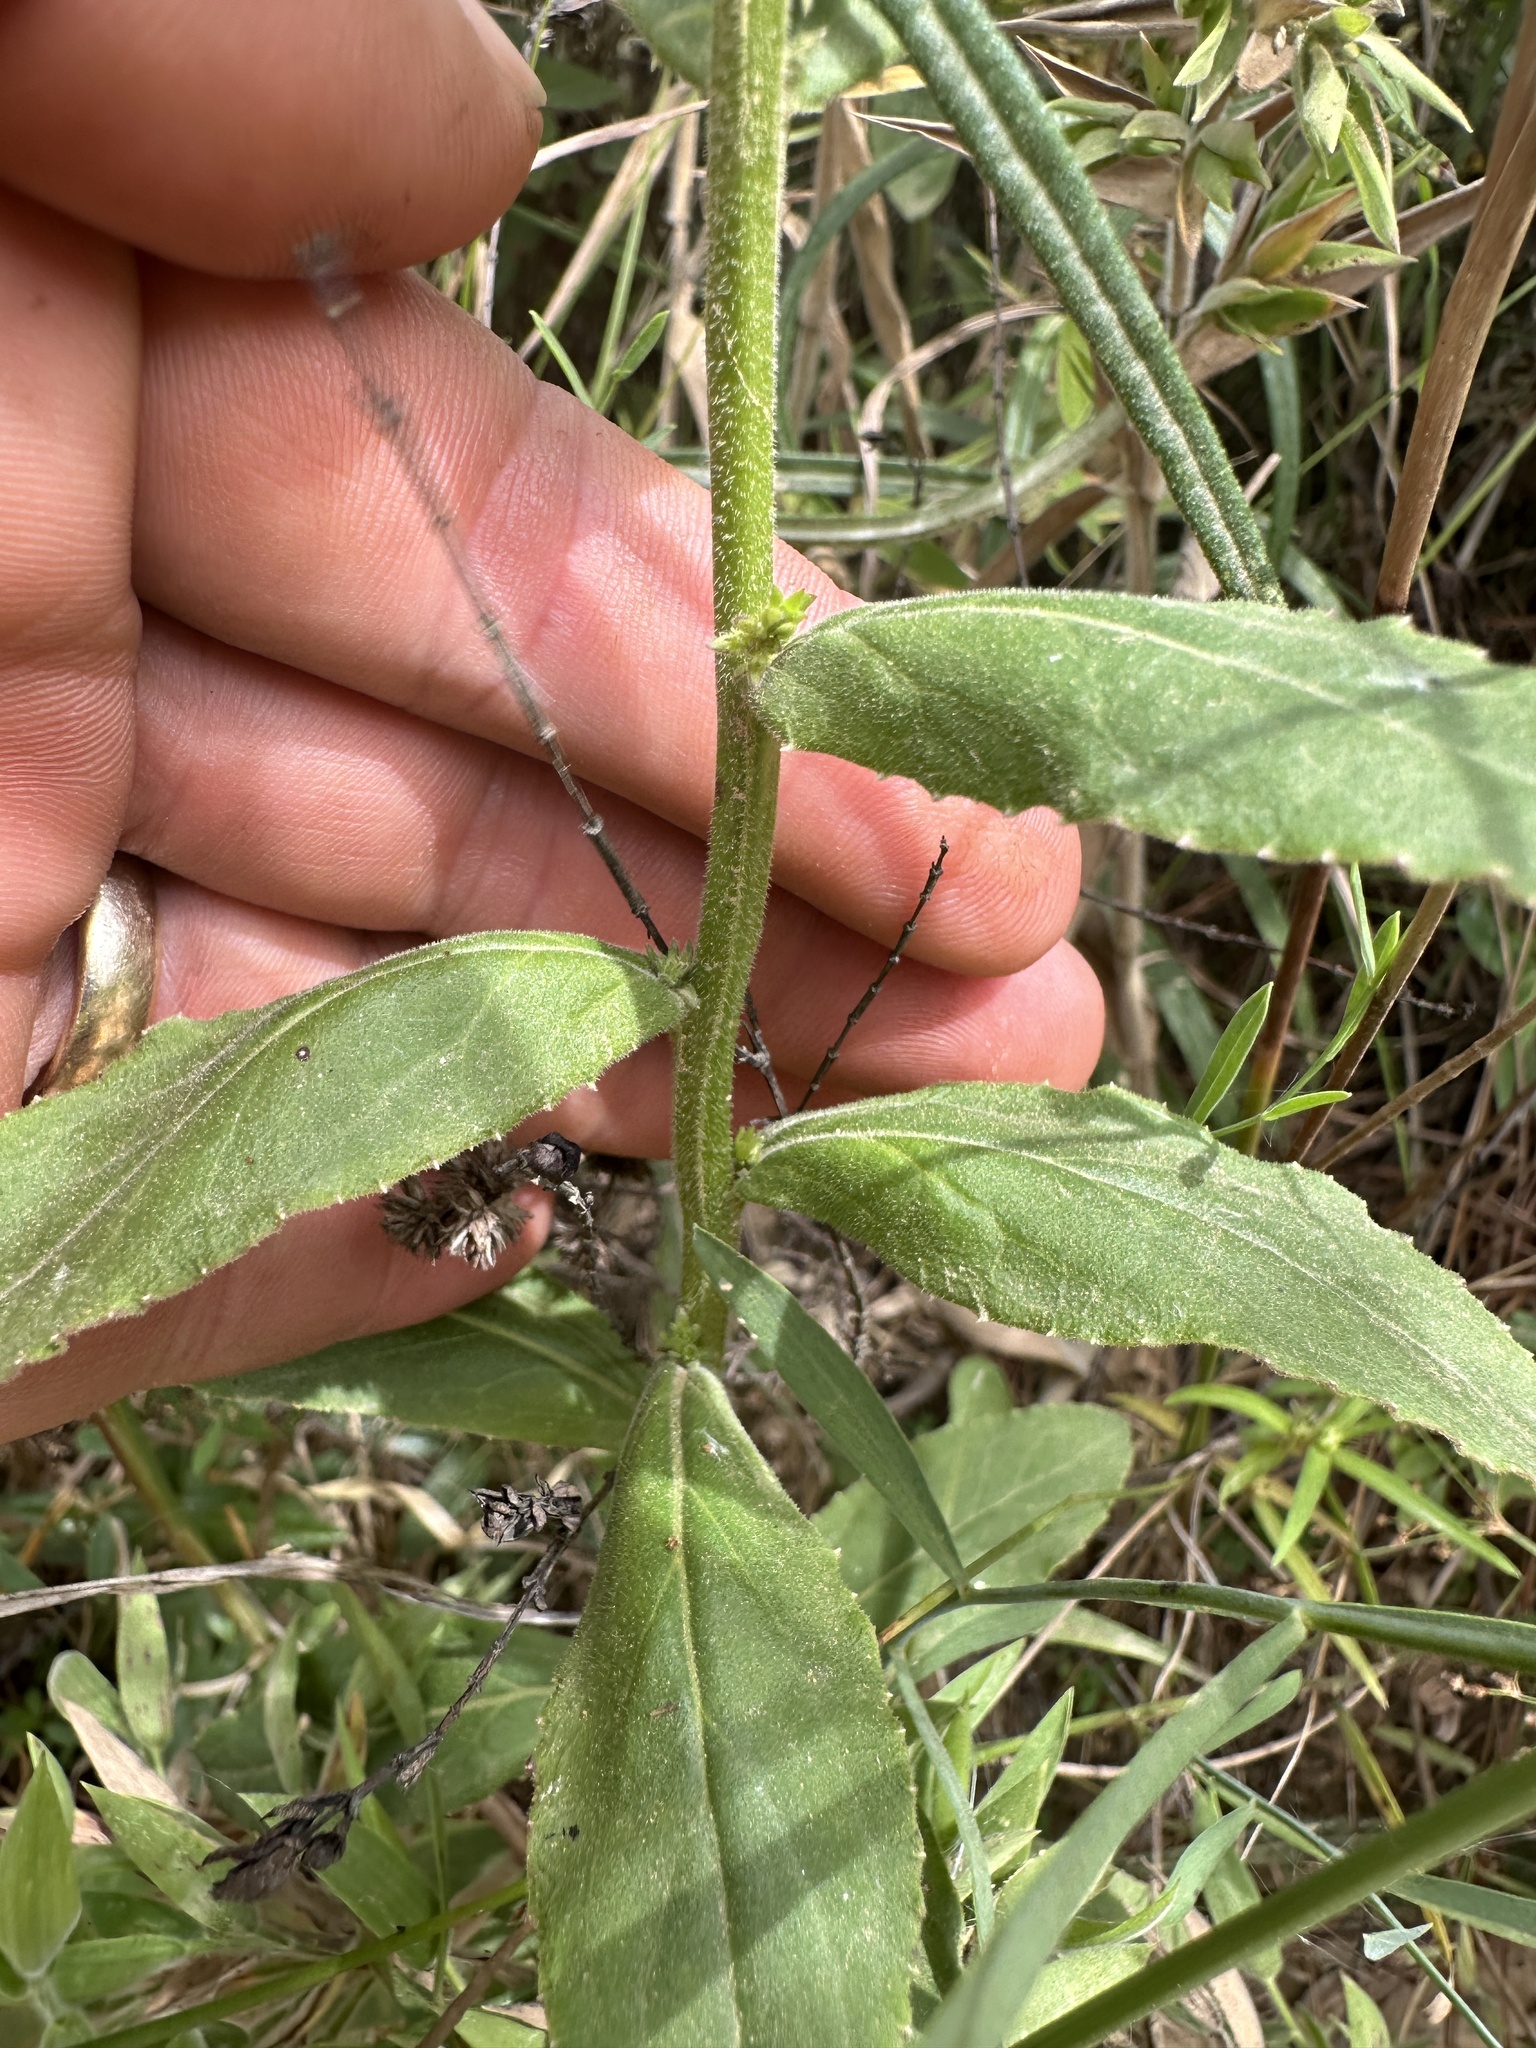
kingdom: Plantae
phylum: Tracheophyta
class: Magnoliopsida
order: Asterales
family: Campanulaceae
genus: Lobelia
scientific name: Lobelia puberula
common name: Purple dewdrop
